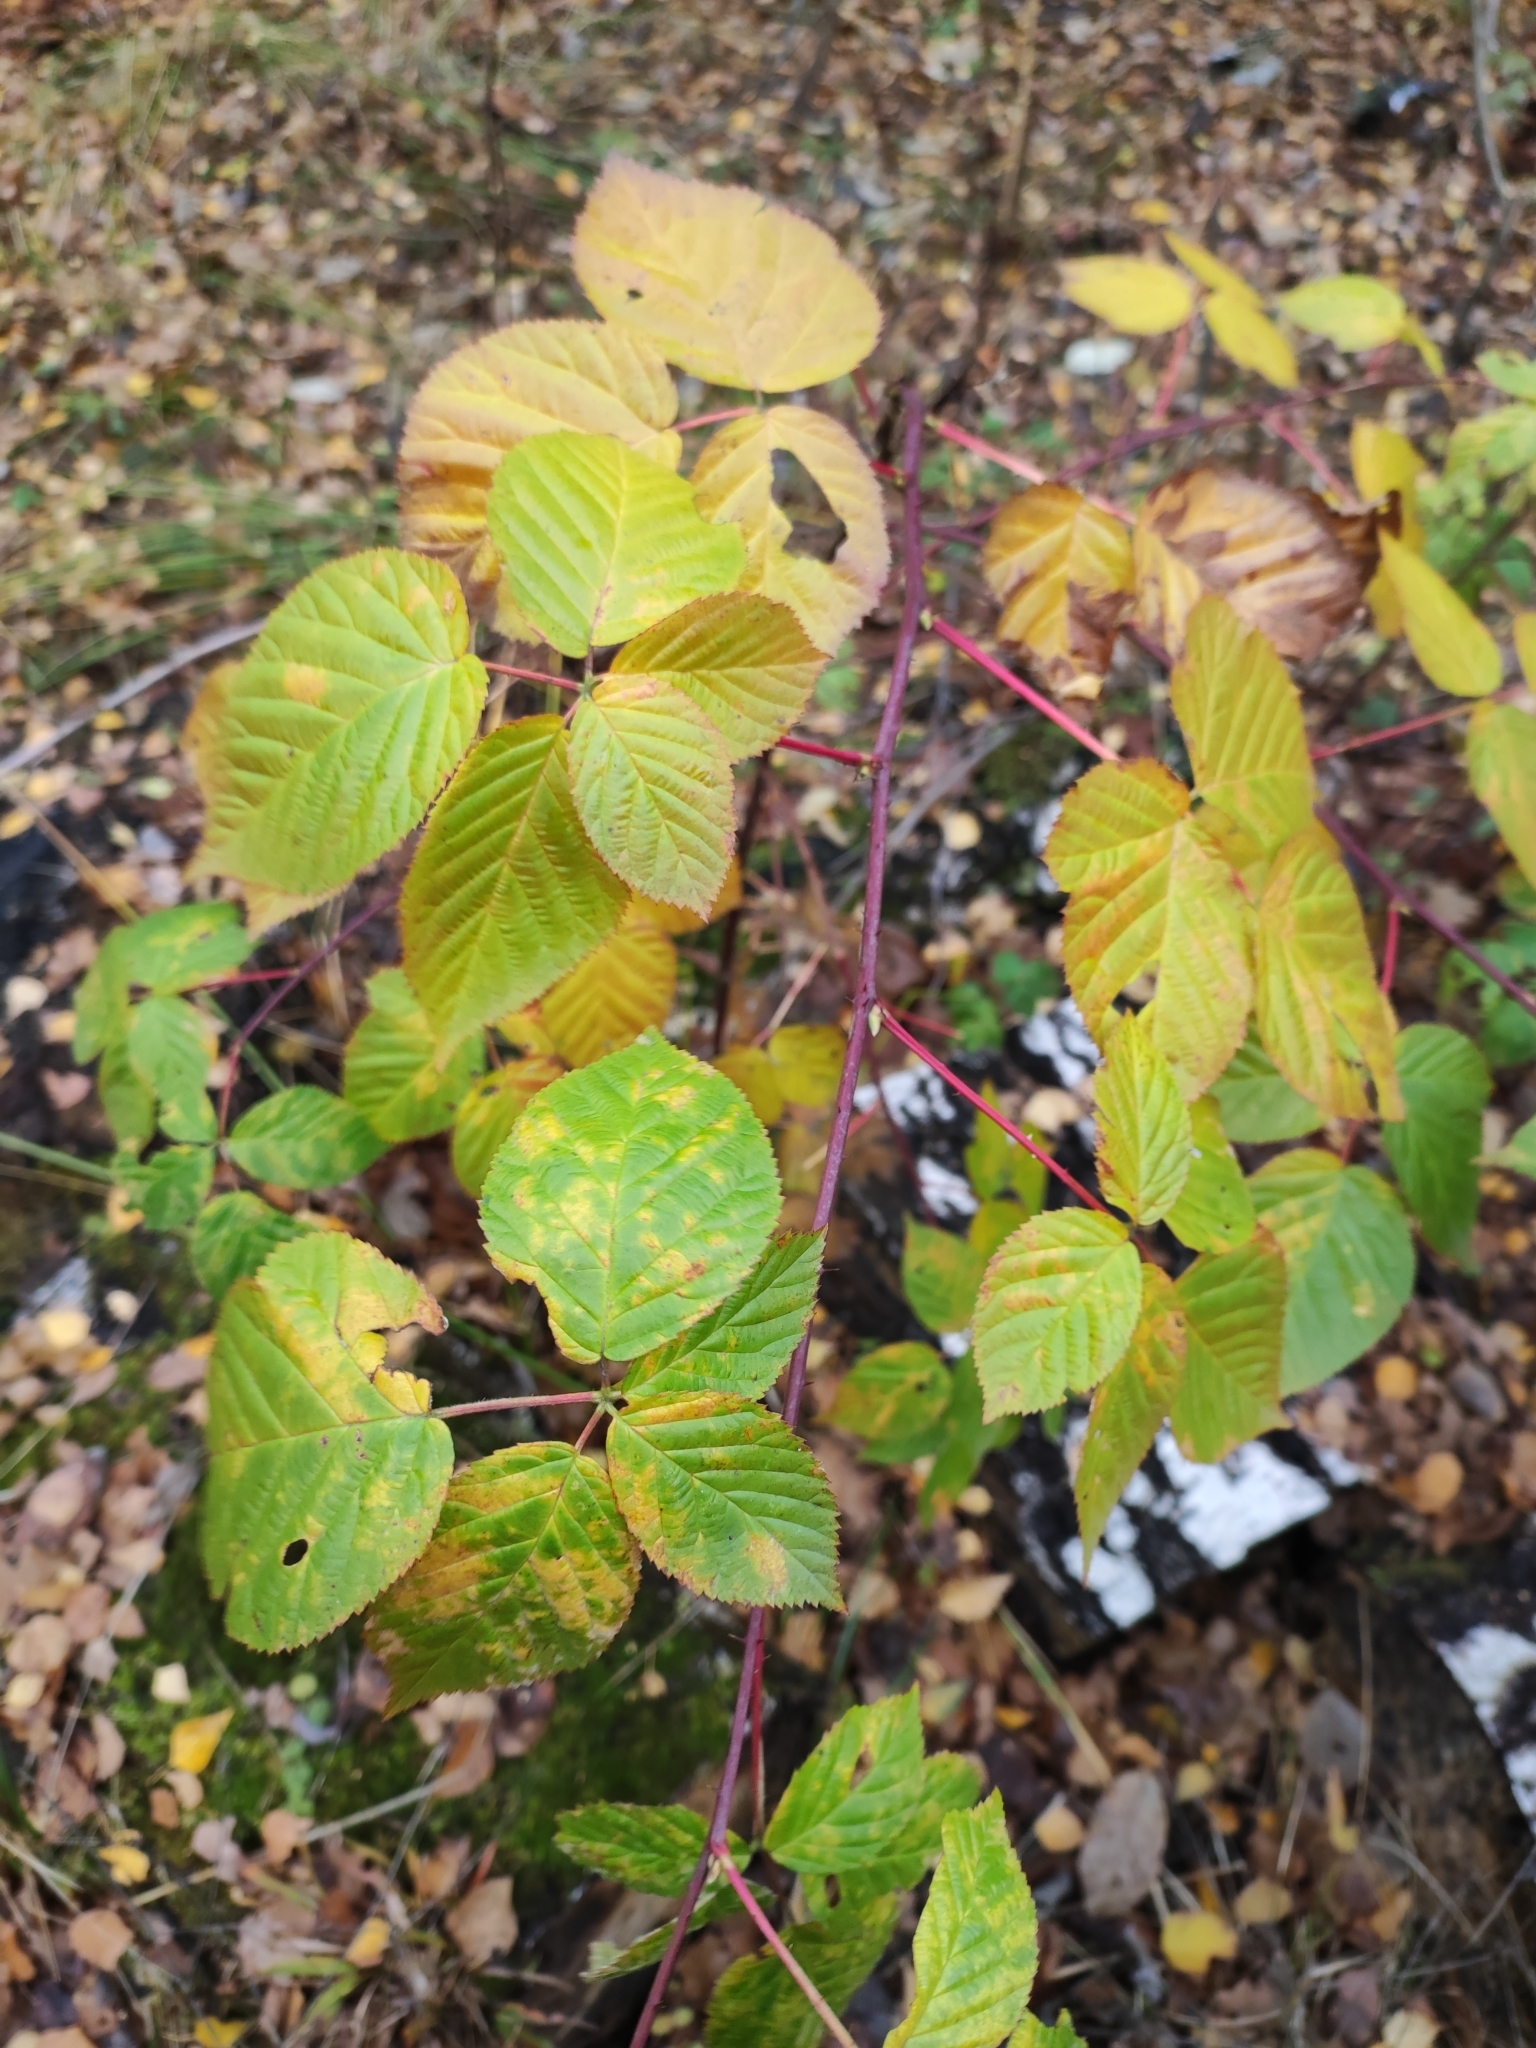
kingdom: Plantae
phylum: Tracheophyta
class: Magnoliopsida
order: Rosales
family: Rosaceae
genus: Rubus
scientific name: Rubus polonicus
